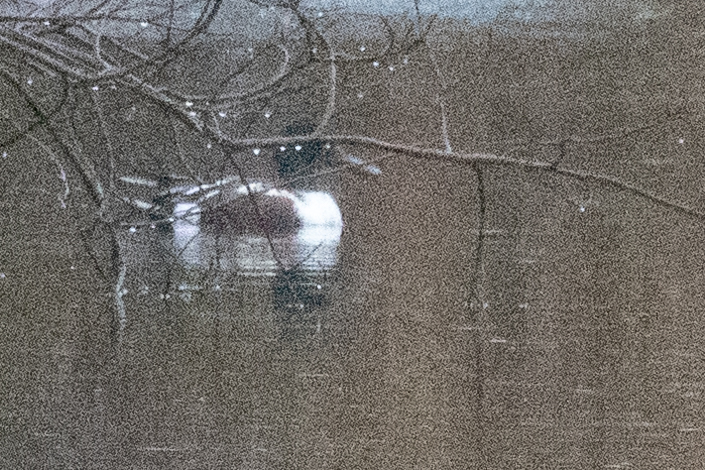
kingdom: Animalia
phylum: Chordata
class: Aves
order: Anseriformes
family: Anatidae
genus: Spatula
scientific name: Spatula clypeata
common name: Northern shoveler
